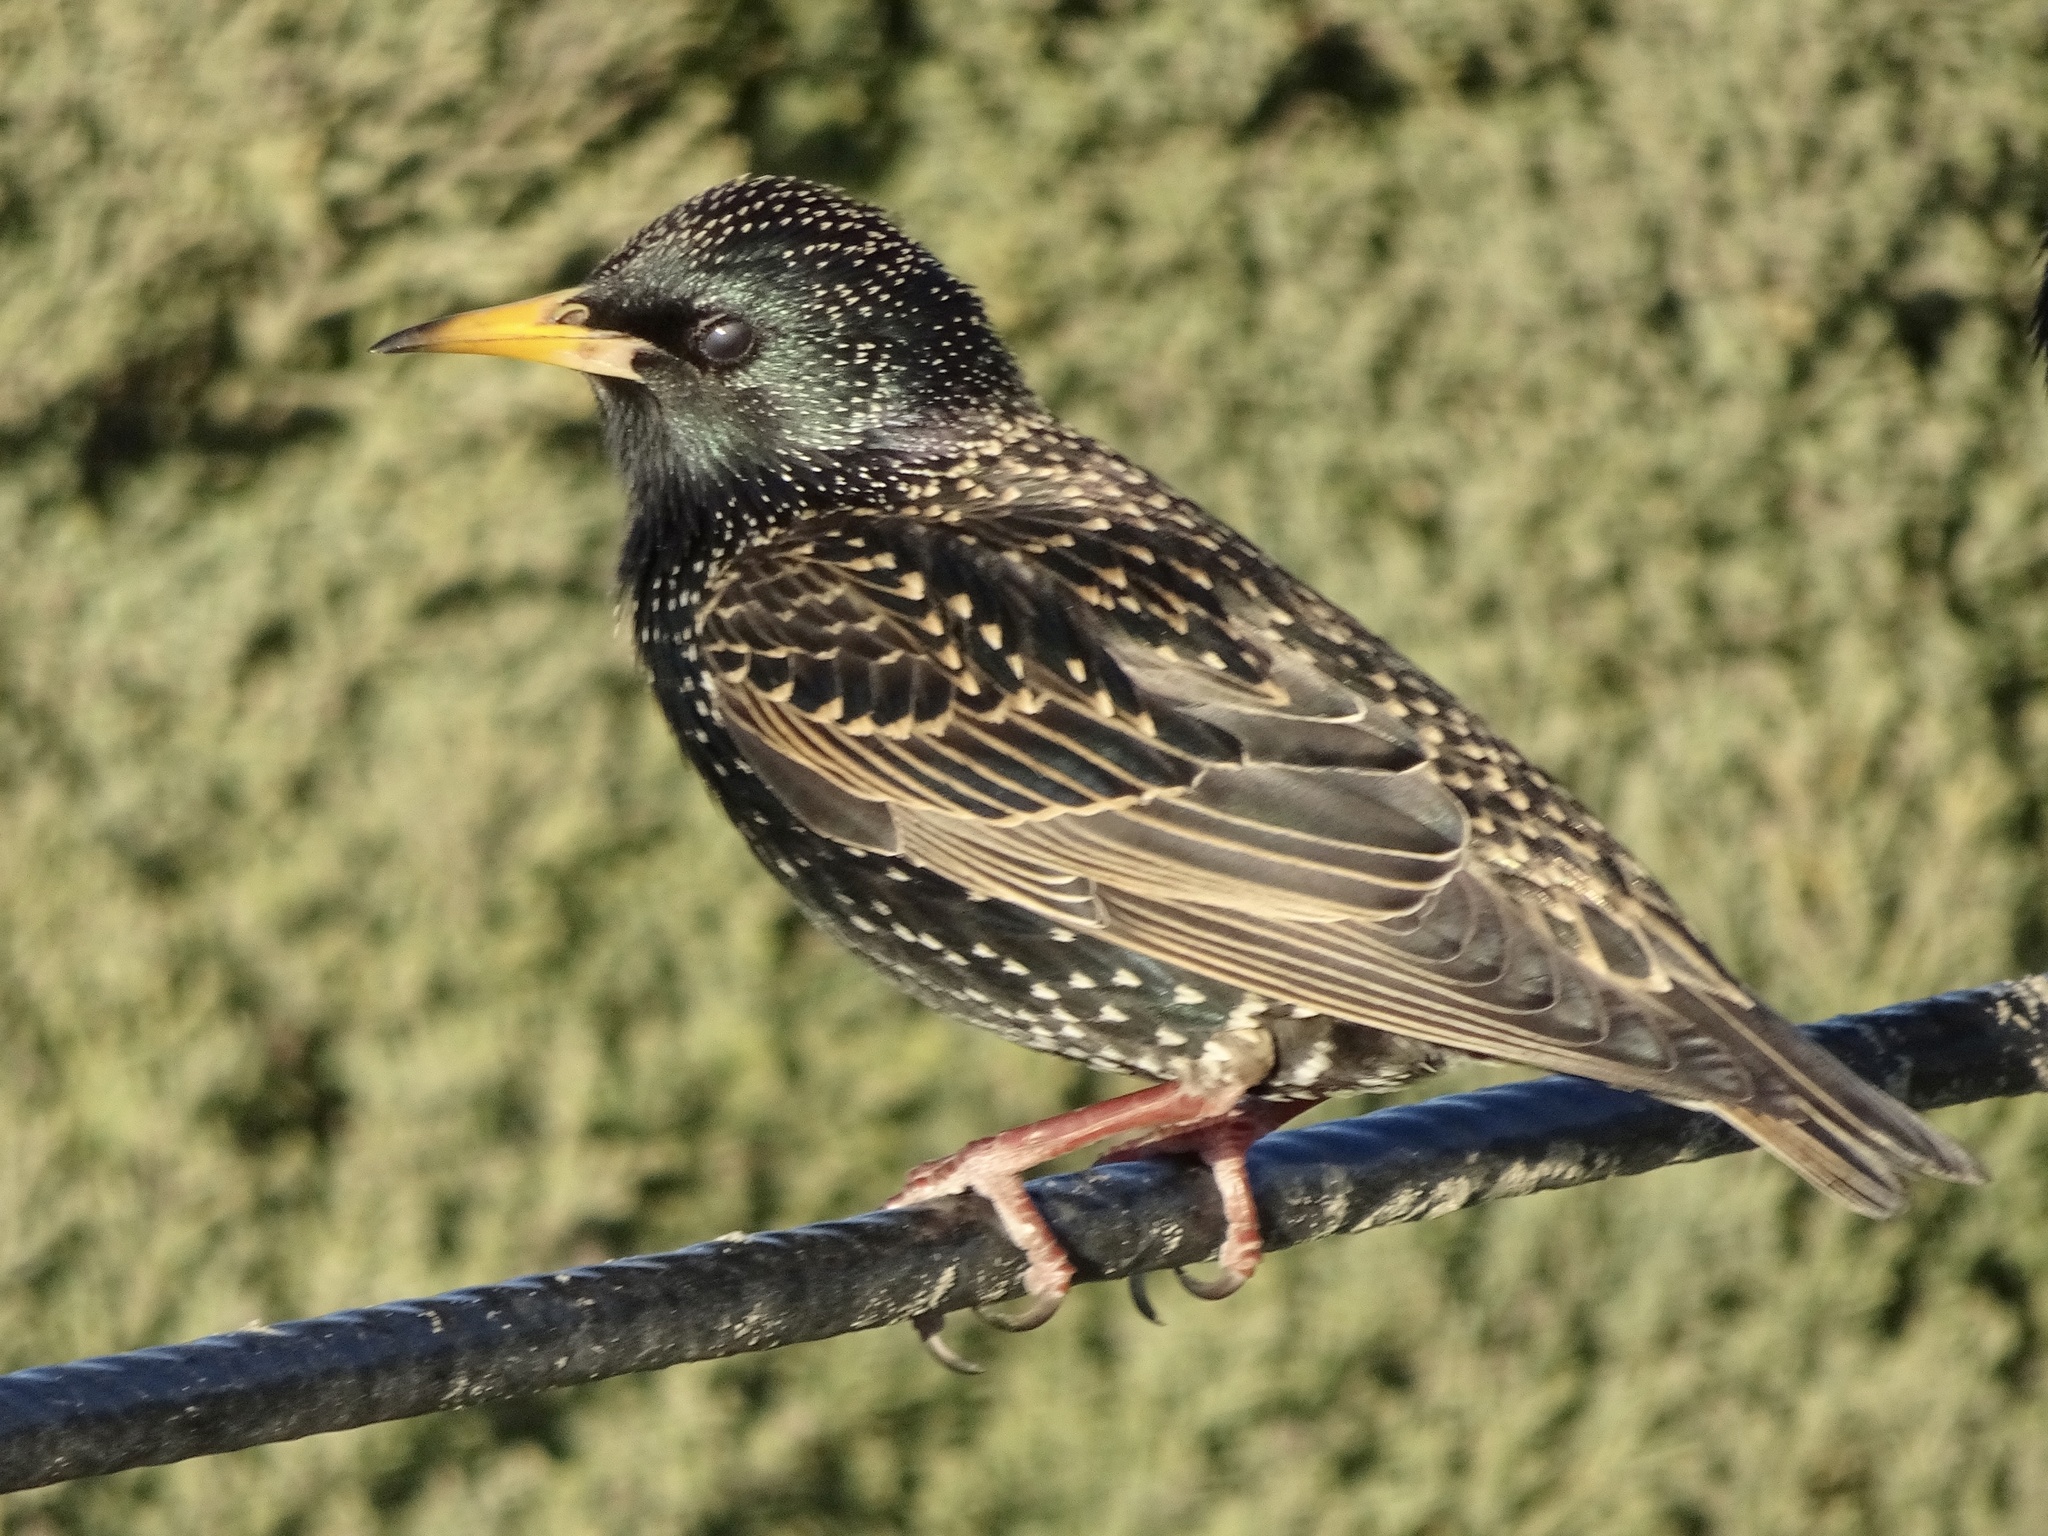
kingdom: Animalia
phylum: Chordata
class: Aves
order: Passeriformes
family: Sturnidae
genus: Sturnus
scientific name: Sturnus vulgaris
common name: Common starling
